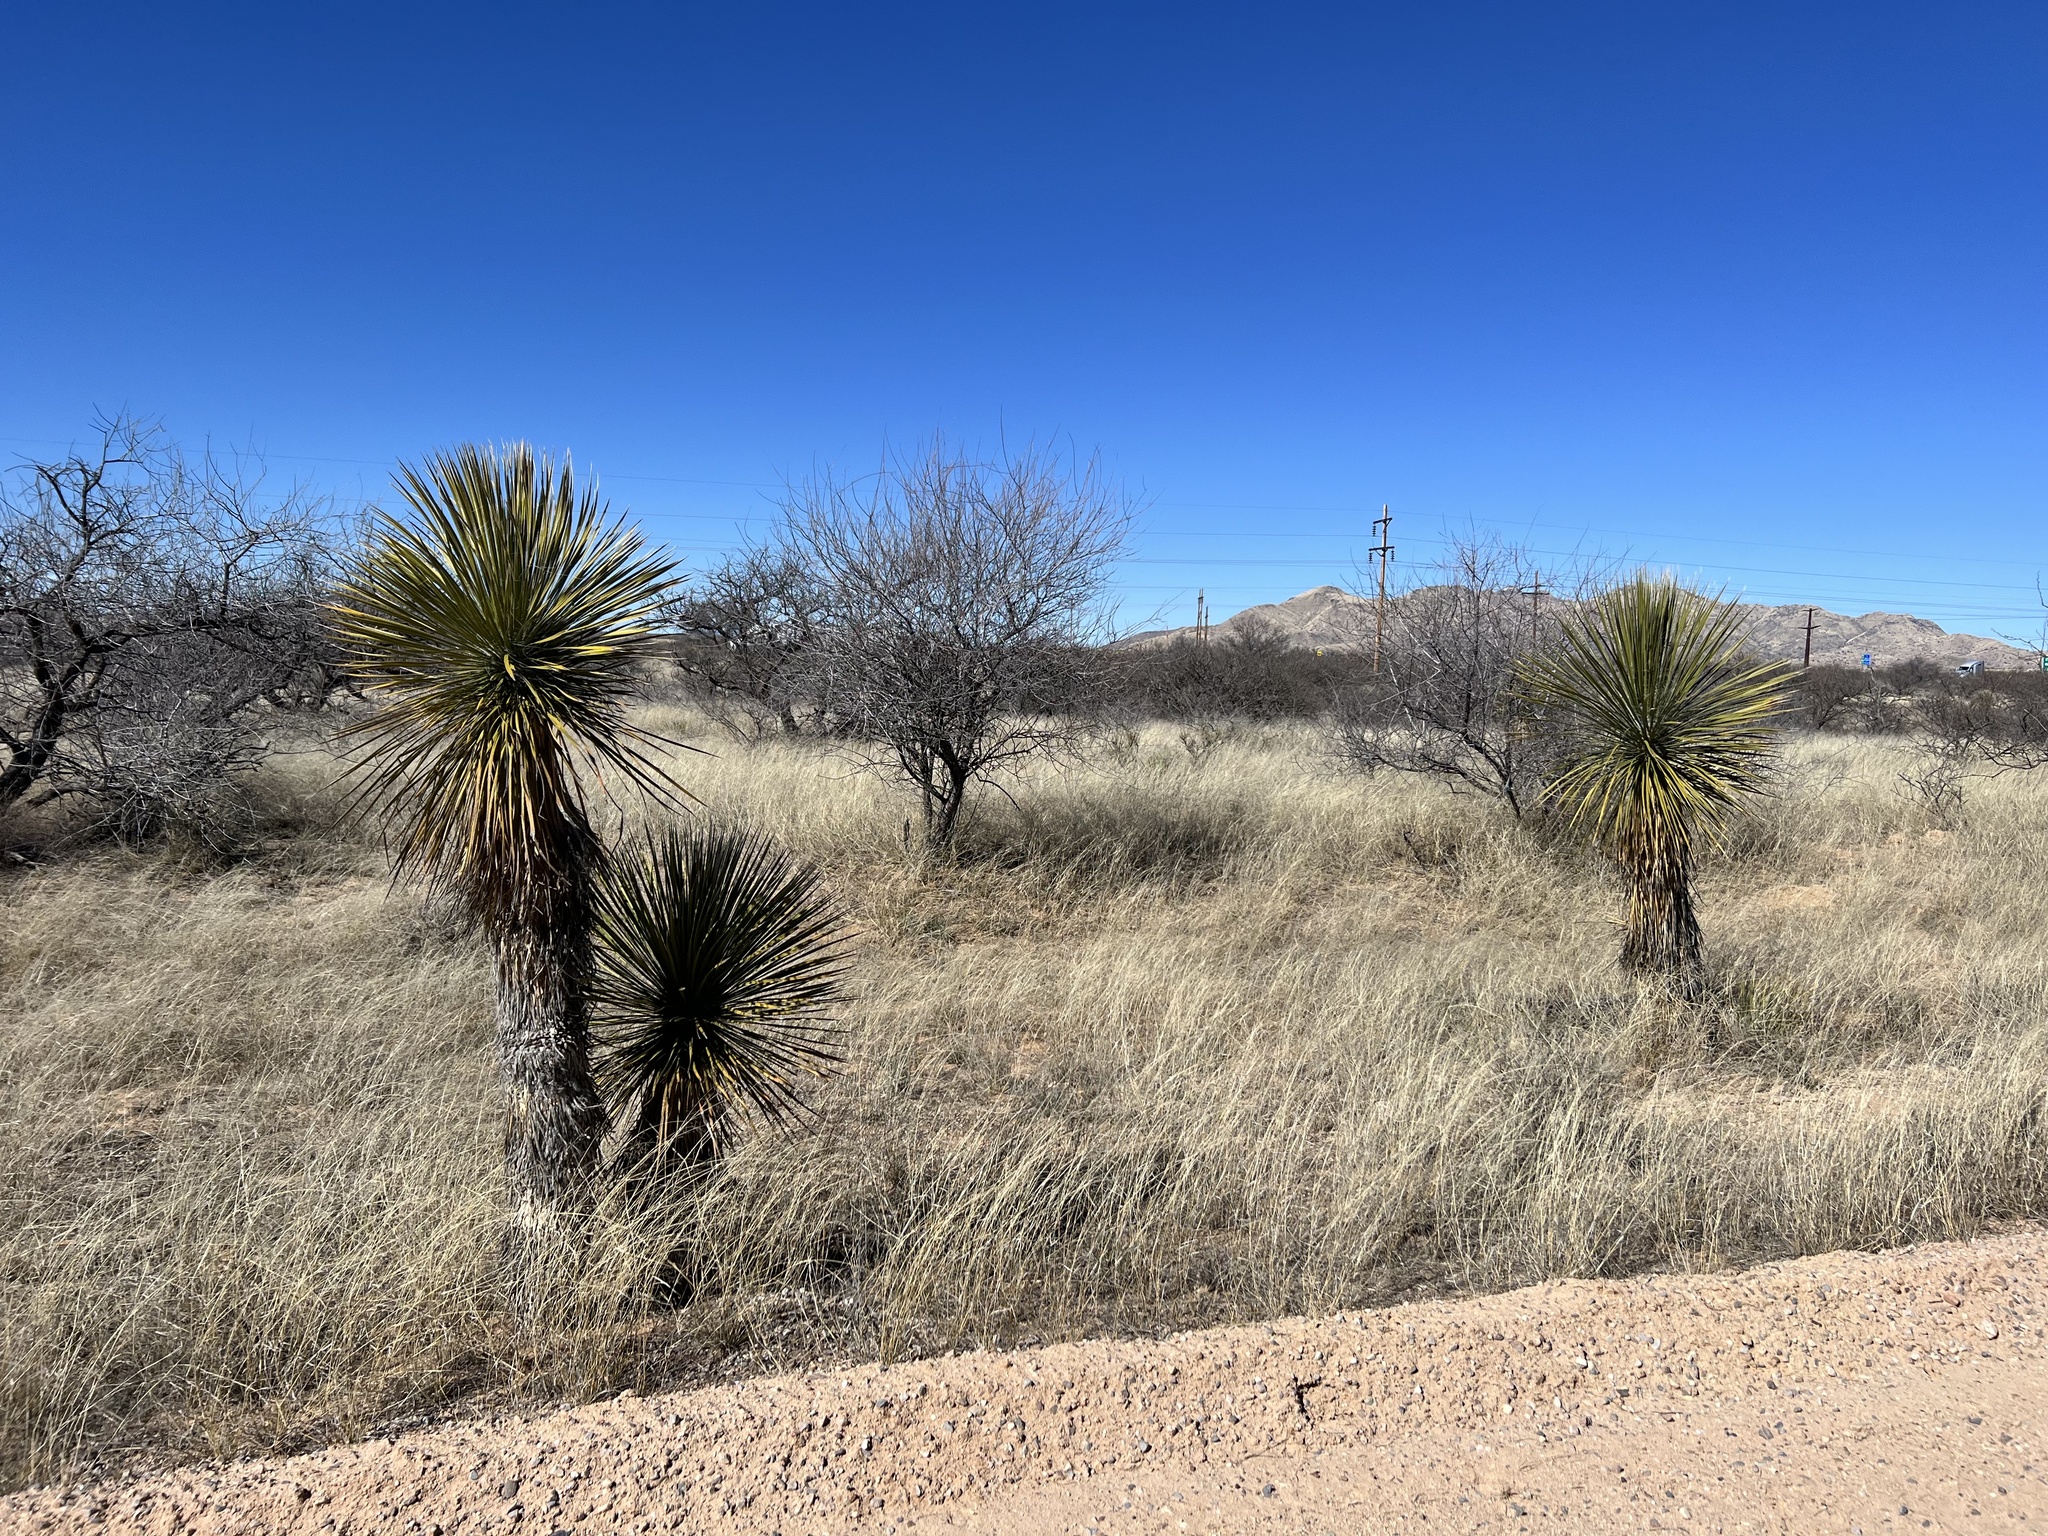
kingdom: Plantae
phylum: Tracheophyta
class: Liliopsida
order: Asparagales
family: Asparagaceae
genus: Yucca
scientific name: Yucca elata
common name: Palmella
